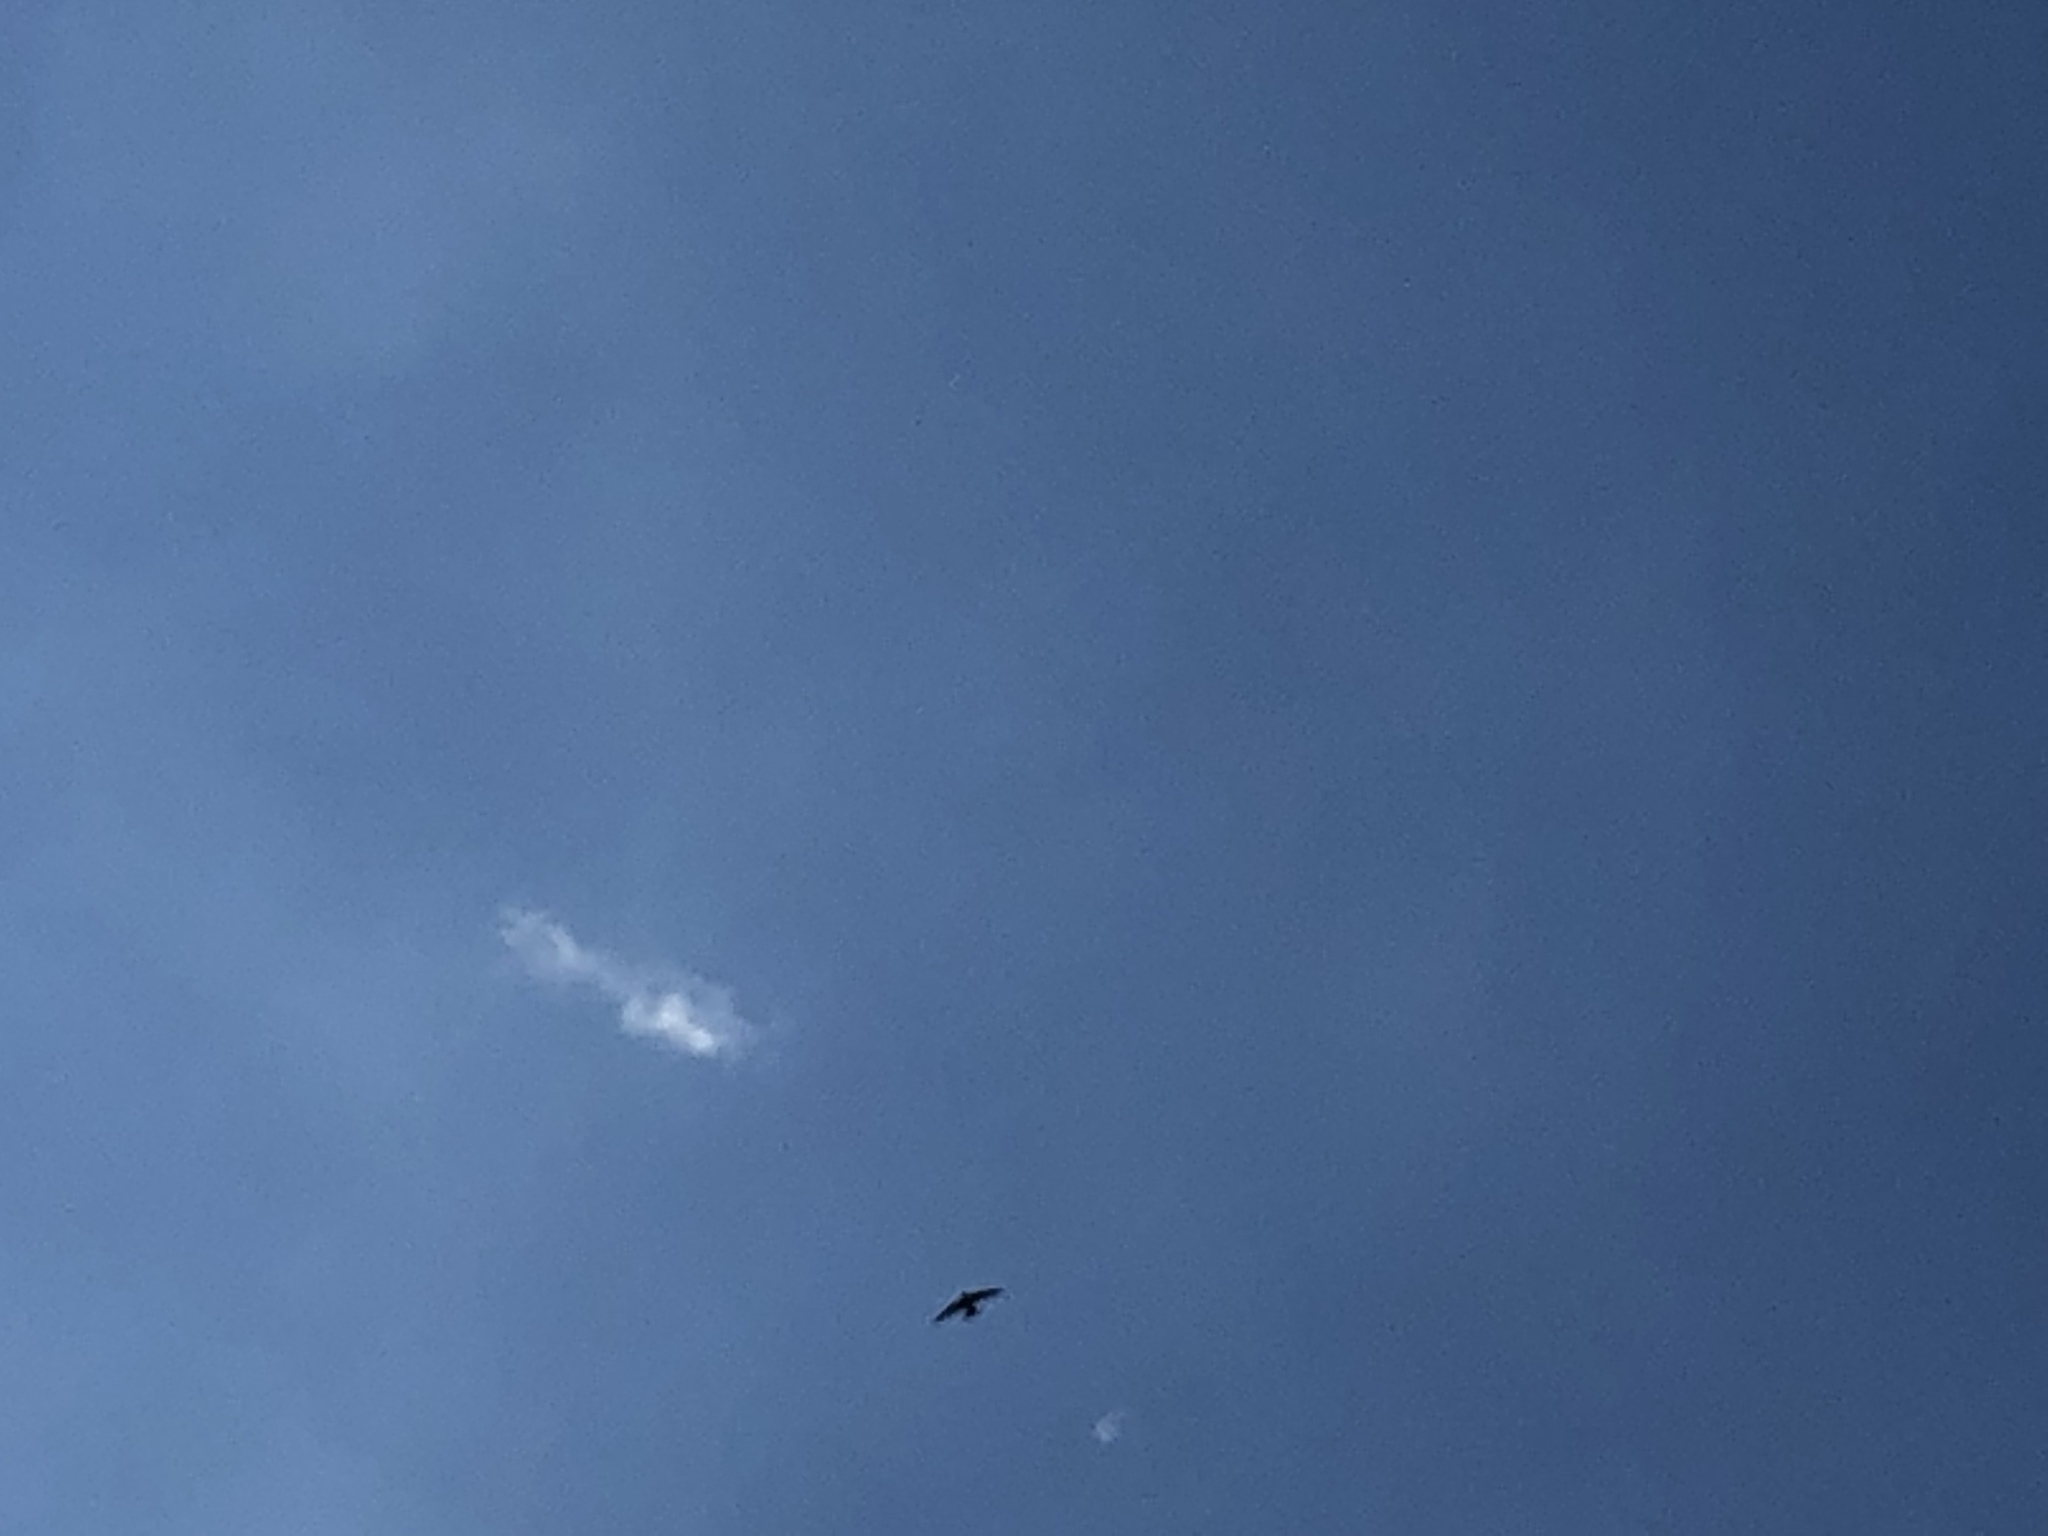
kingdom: Animalia
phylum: Chordata
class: Aves
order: Apodiformes
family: Apodidae
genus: Apus
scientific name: Apus apus
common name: Common swift
